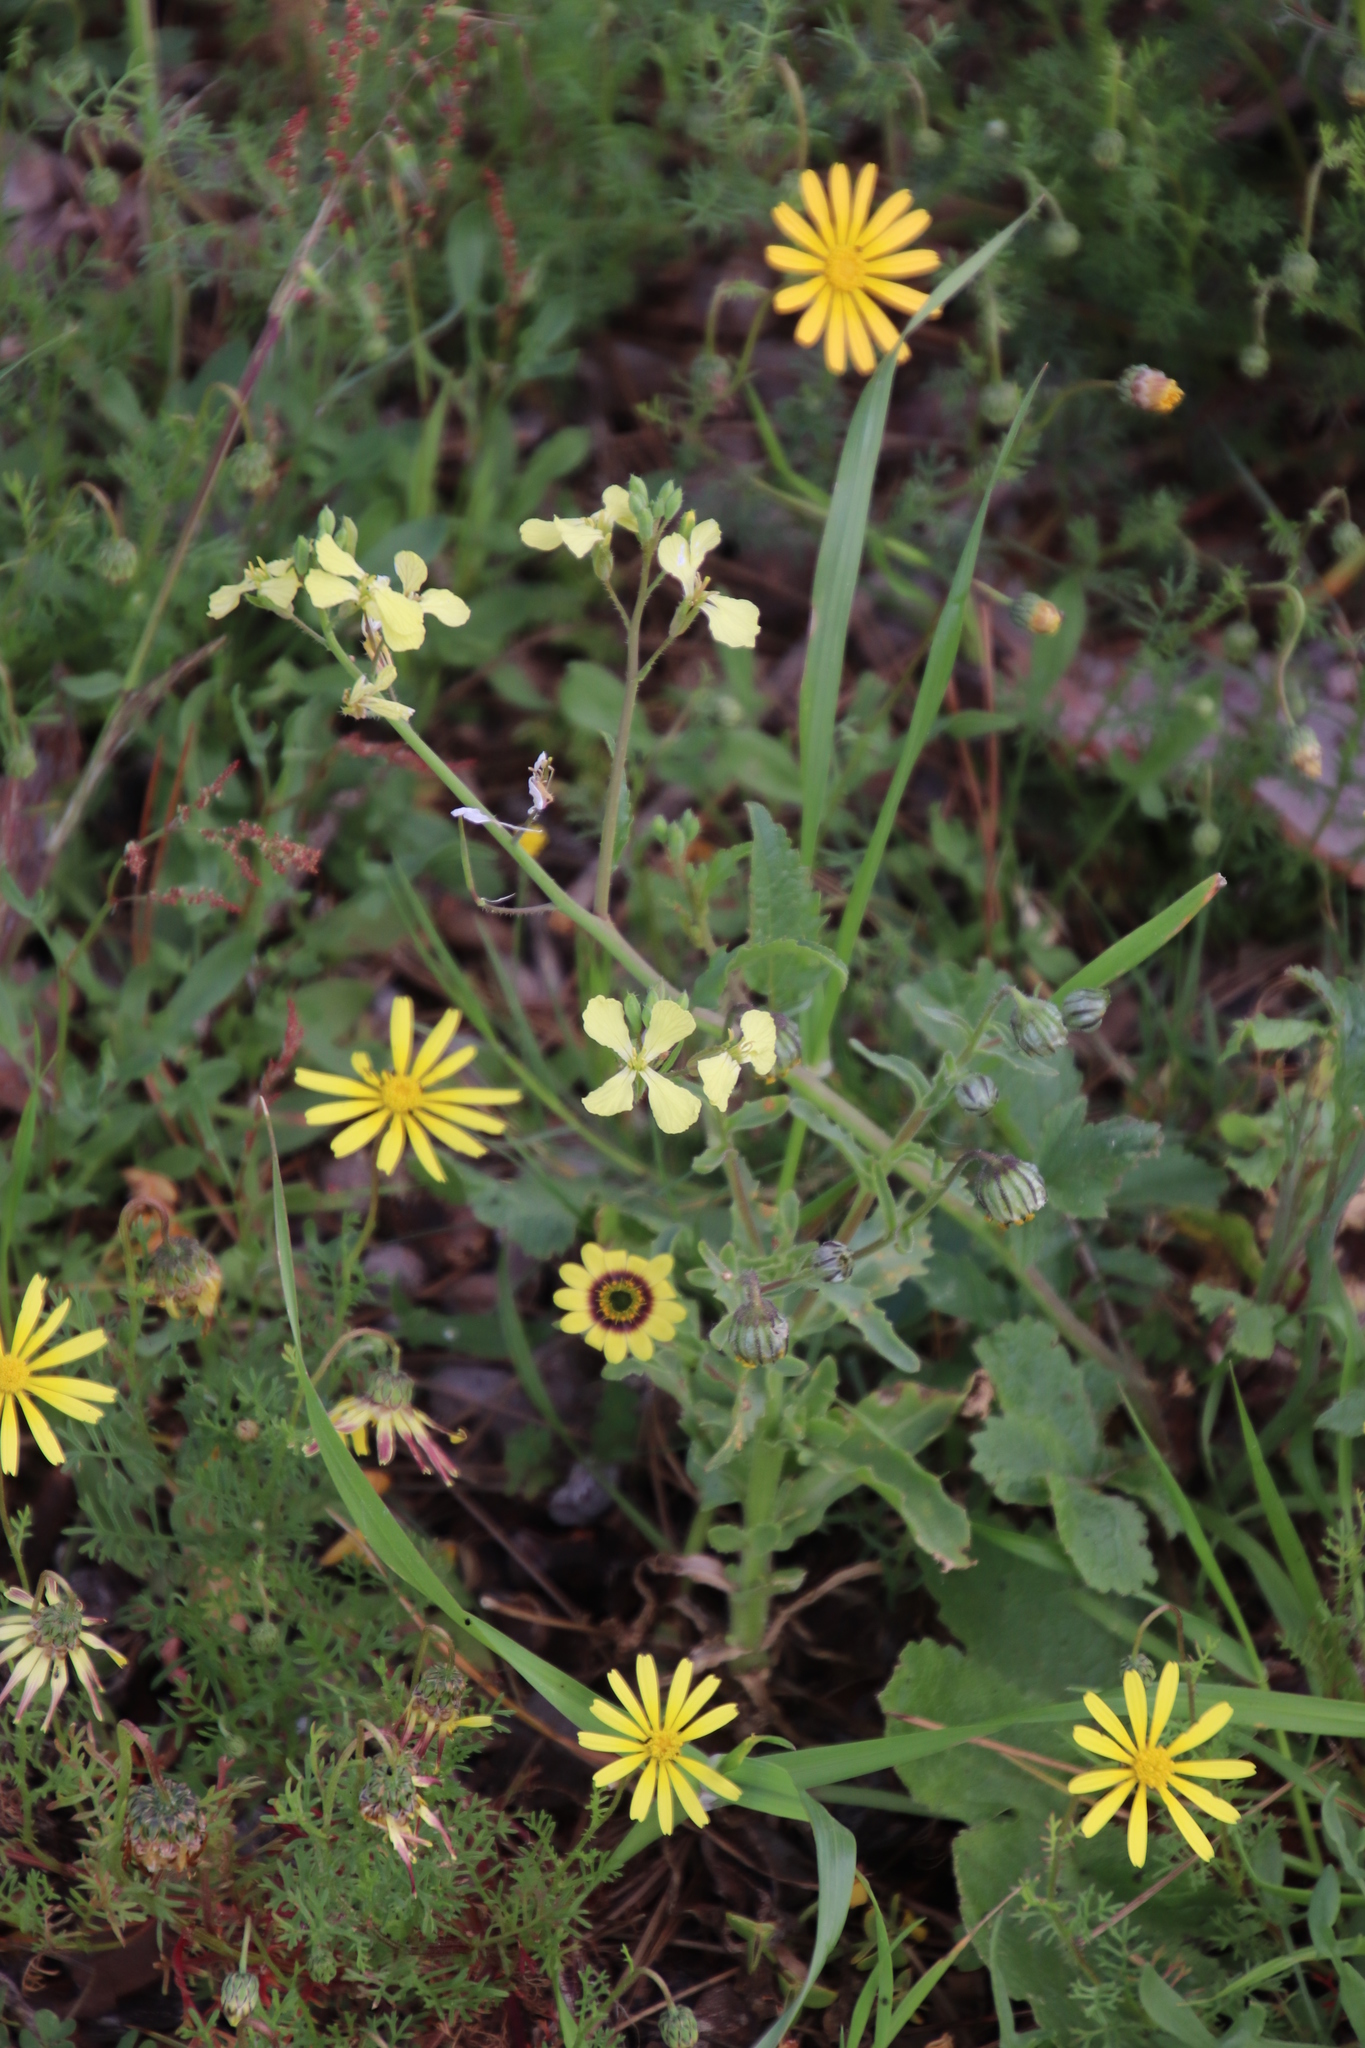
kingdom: Plantae
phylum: Tracheophyta
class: Magnoliopsida
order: Brassicales
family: Brassicaceae
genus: Raphanus
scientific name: Raphanus raphanistrum
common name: Wild radish
